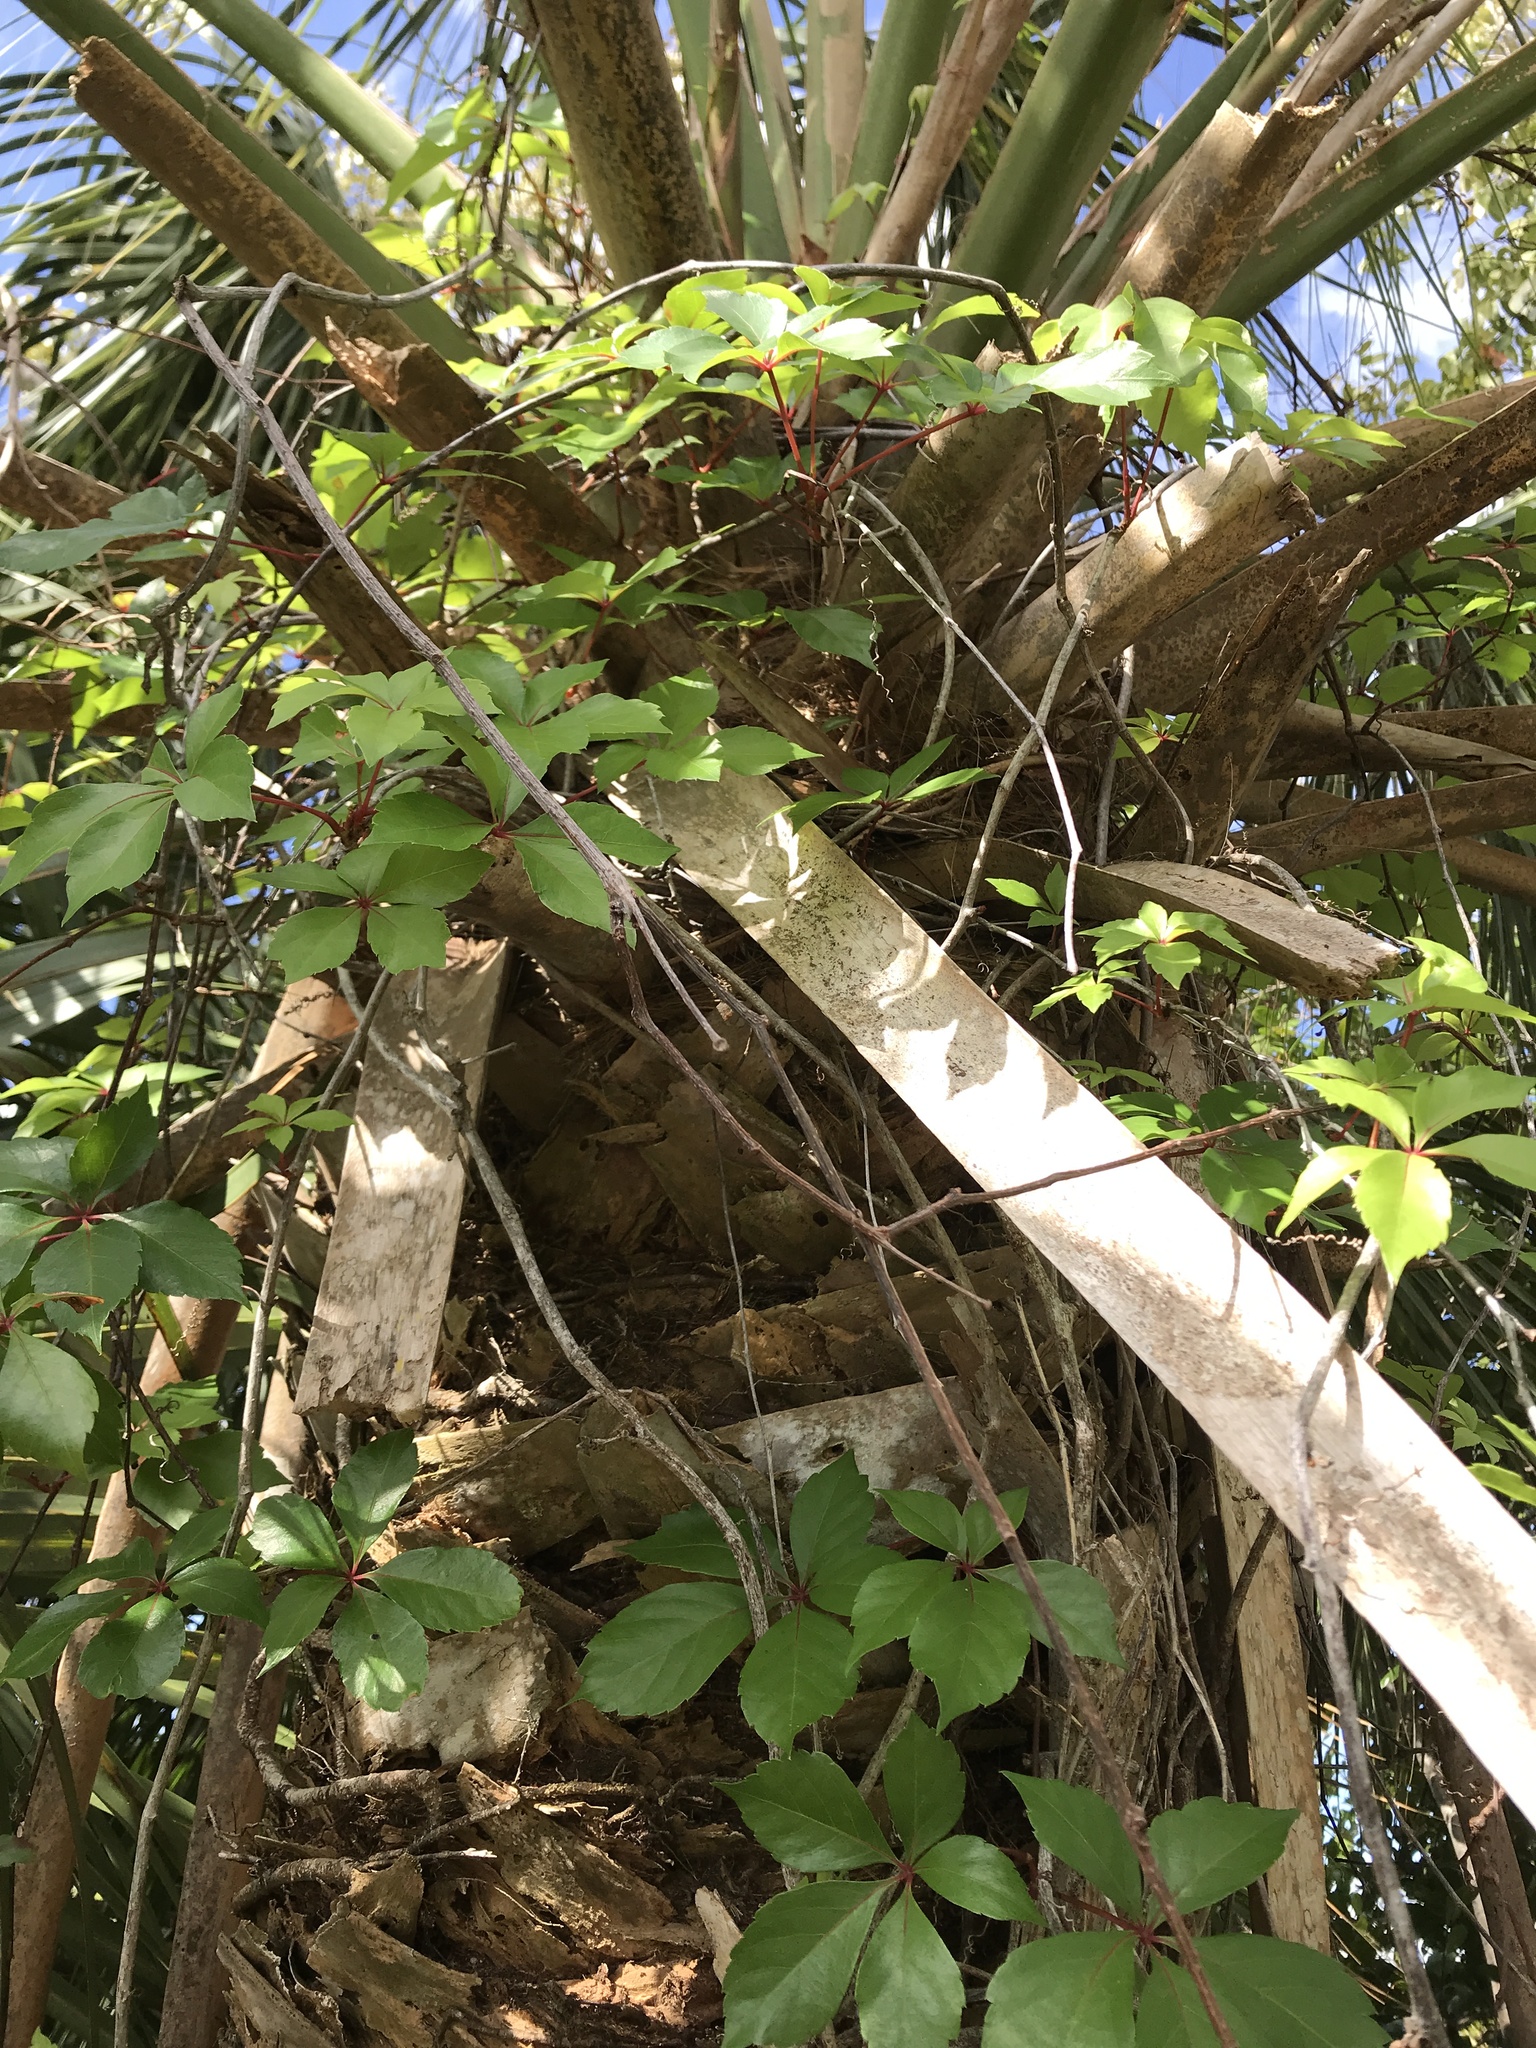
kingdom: Plantae
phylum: Tracheophyta
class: Magnoliopsida
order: Vitales
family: Vitaceae
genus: Parthenocissus
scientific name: Parthenocissus quinquefolia
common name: Virginia-creeper
